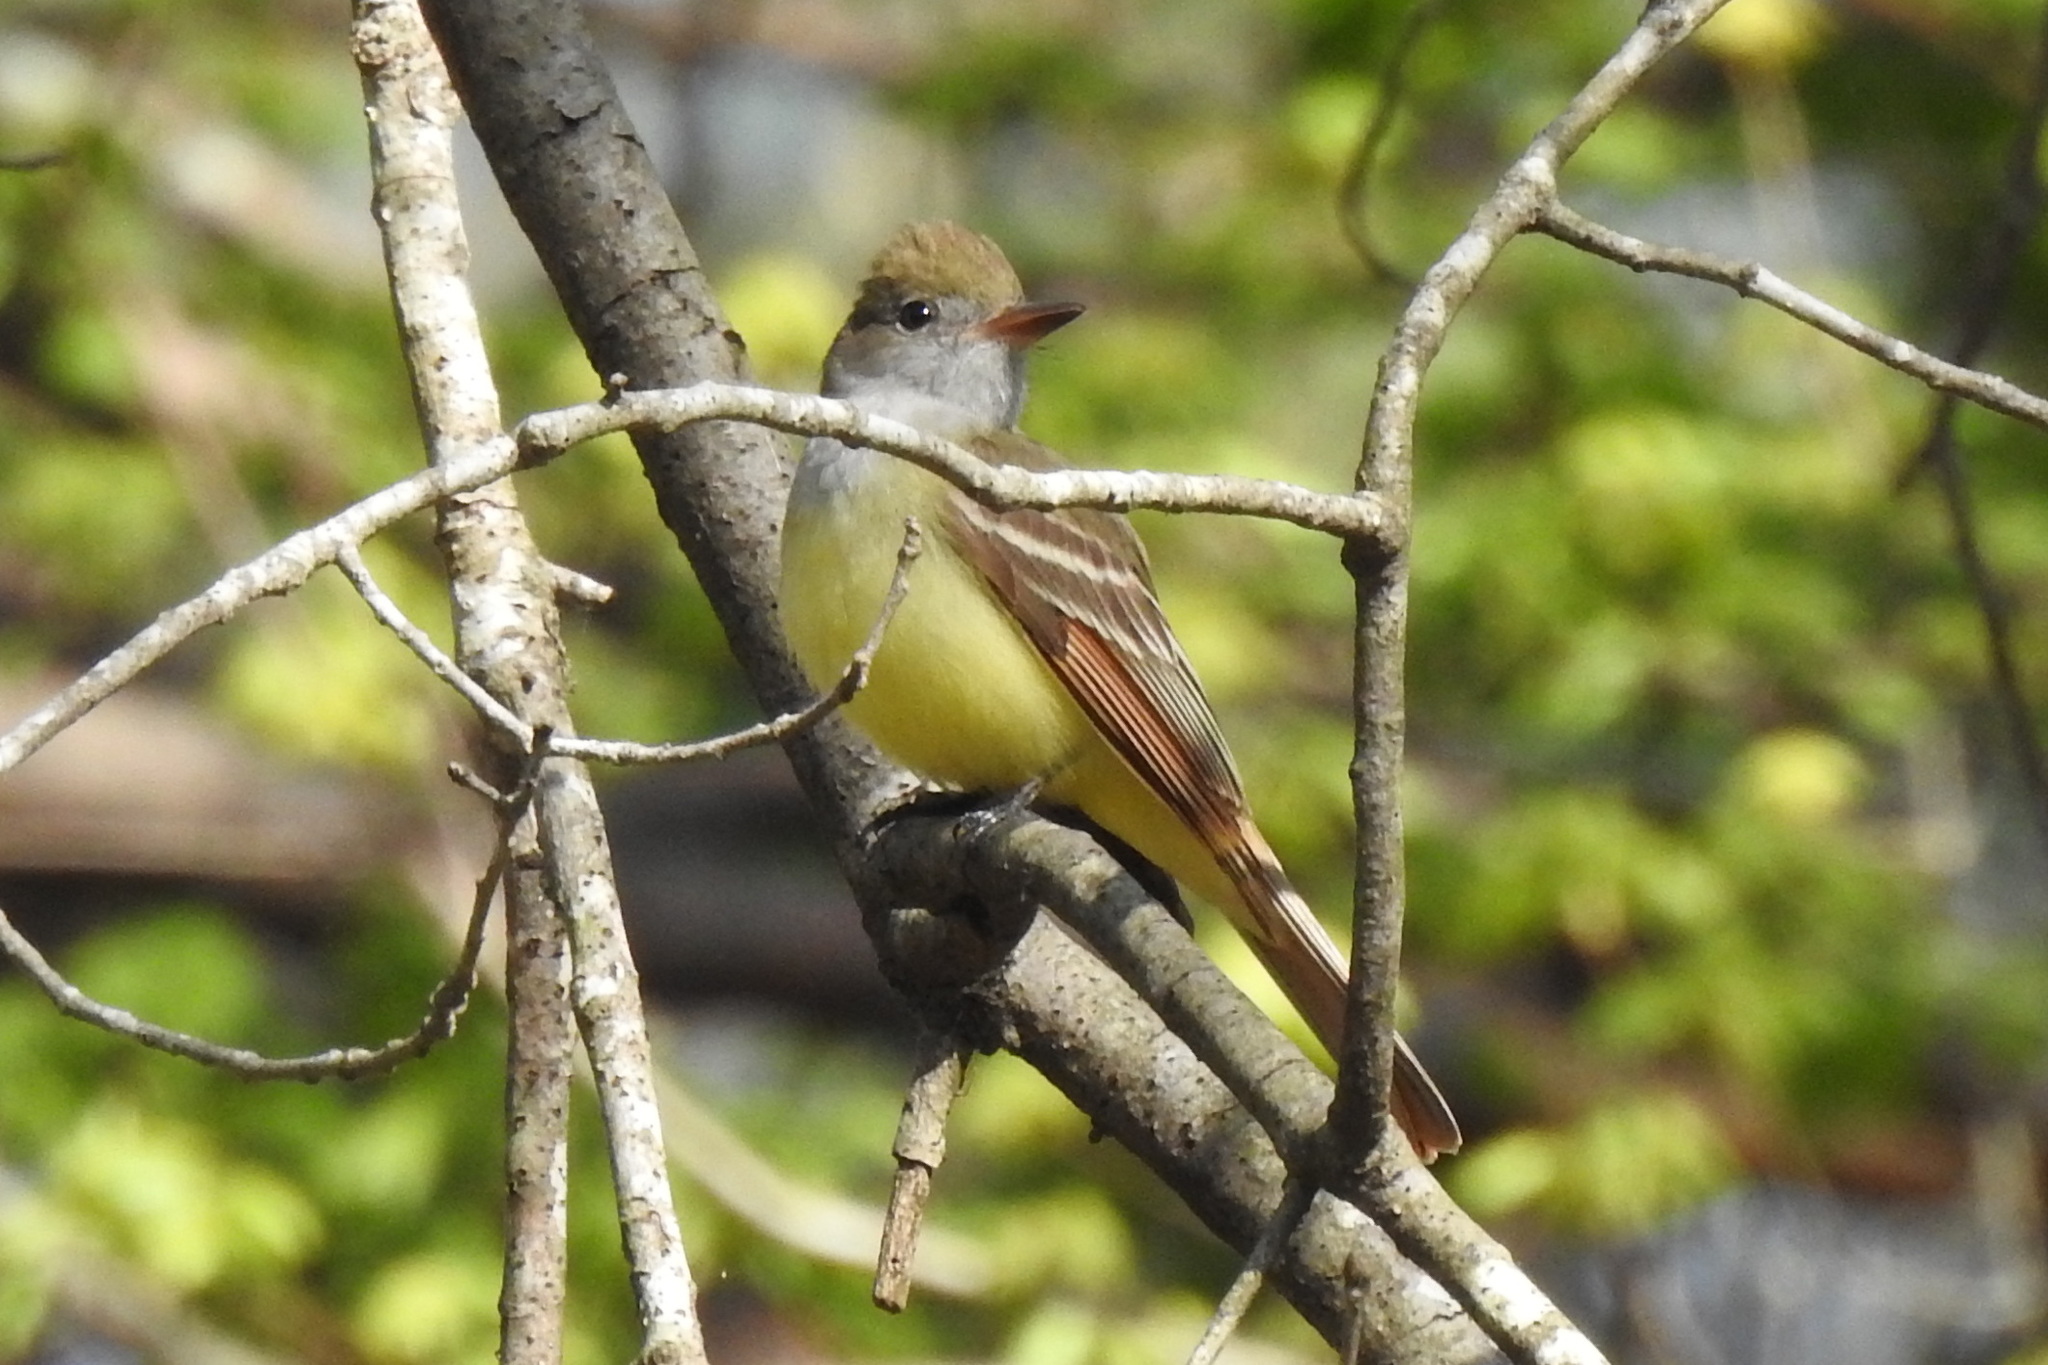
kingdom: Animalia
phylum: Chordata
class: Aves
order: Passeriformes
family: Tyrannidae
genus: Myiarchus
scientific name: Myiarchus crinitus
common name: Great crested flycatcher
